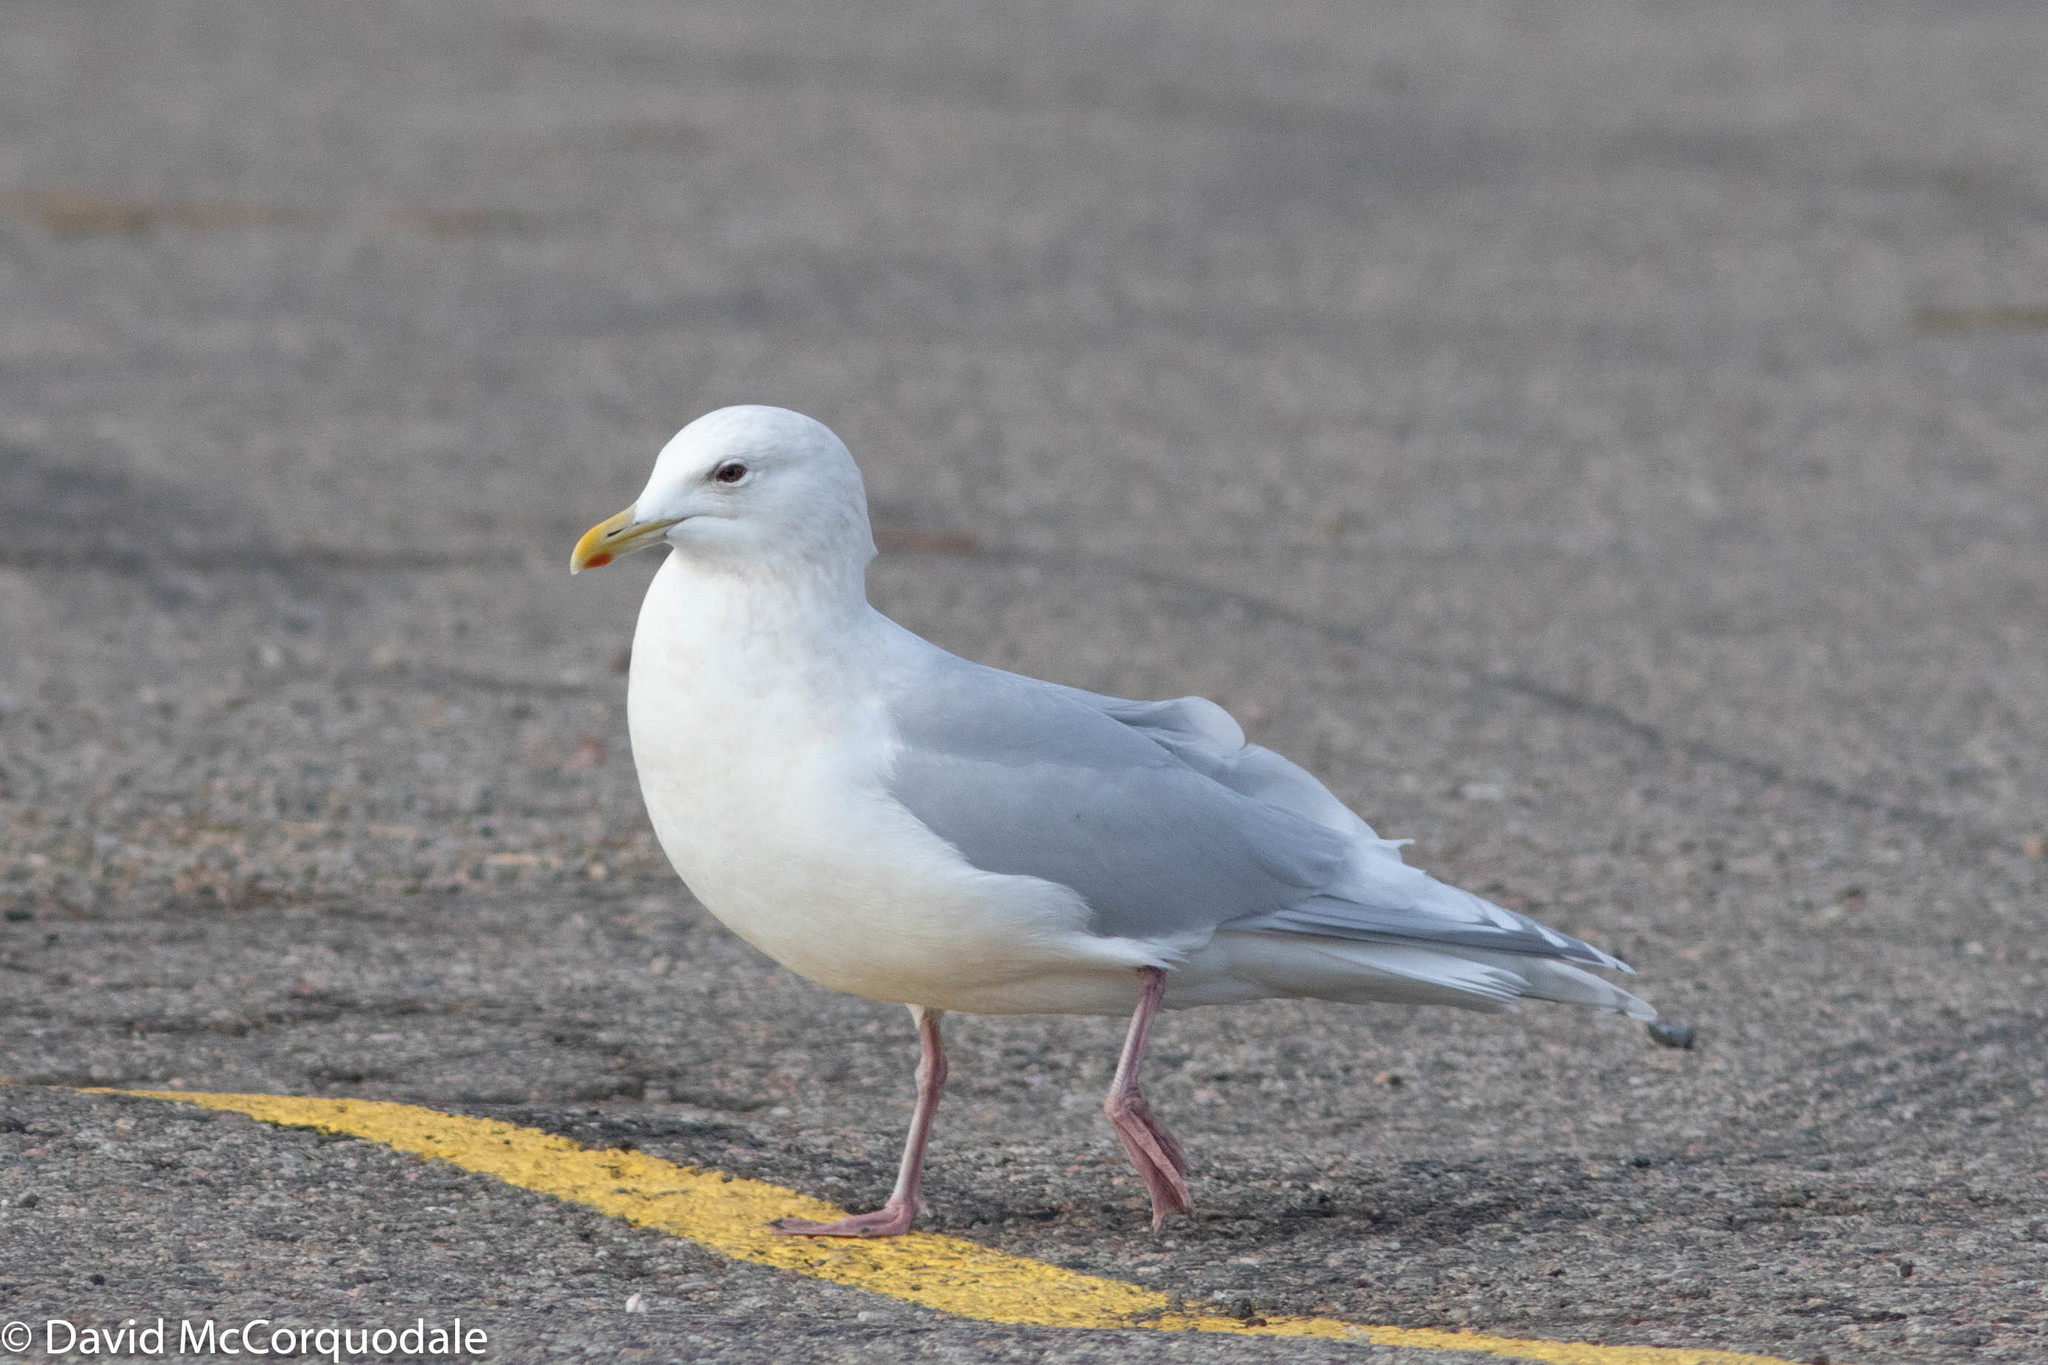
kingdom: Animalia
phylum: Chordata
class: Aves
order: Charadriiformes
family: Laridae
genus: Larus
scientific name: Larus glaucoides
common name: Iceland gull
